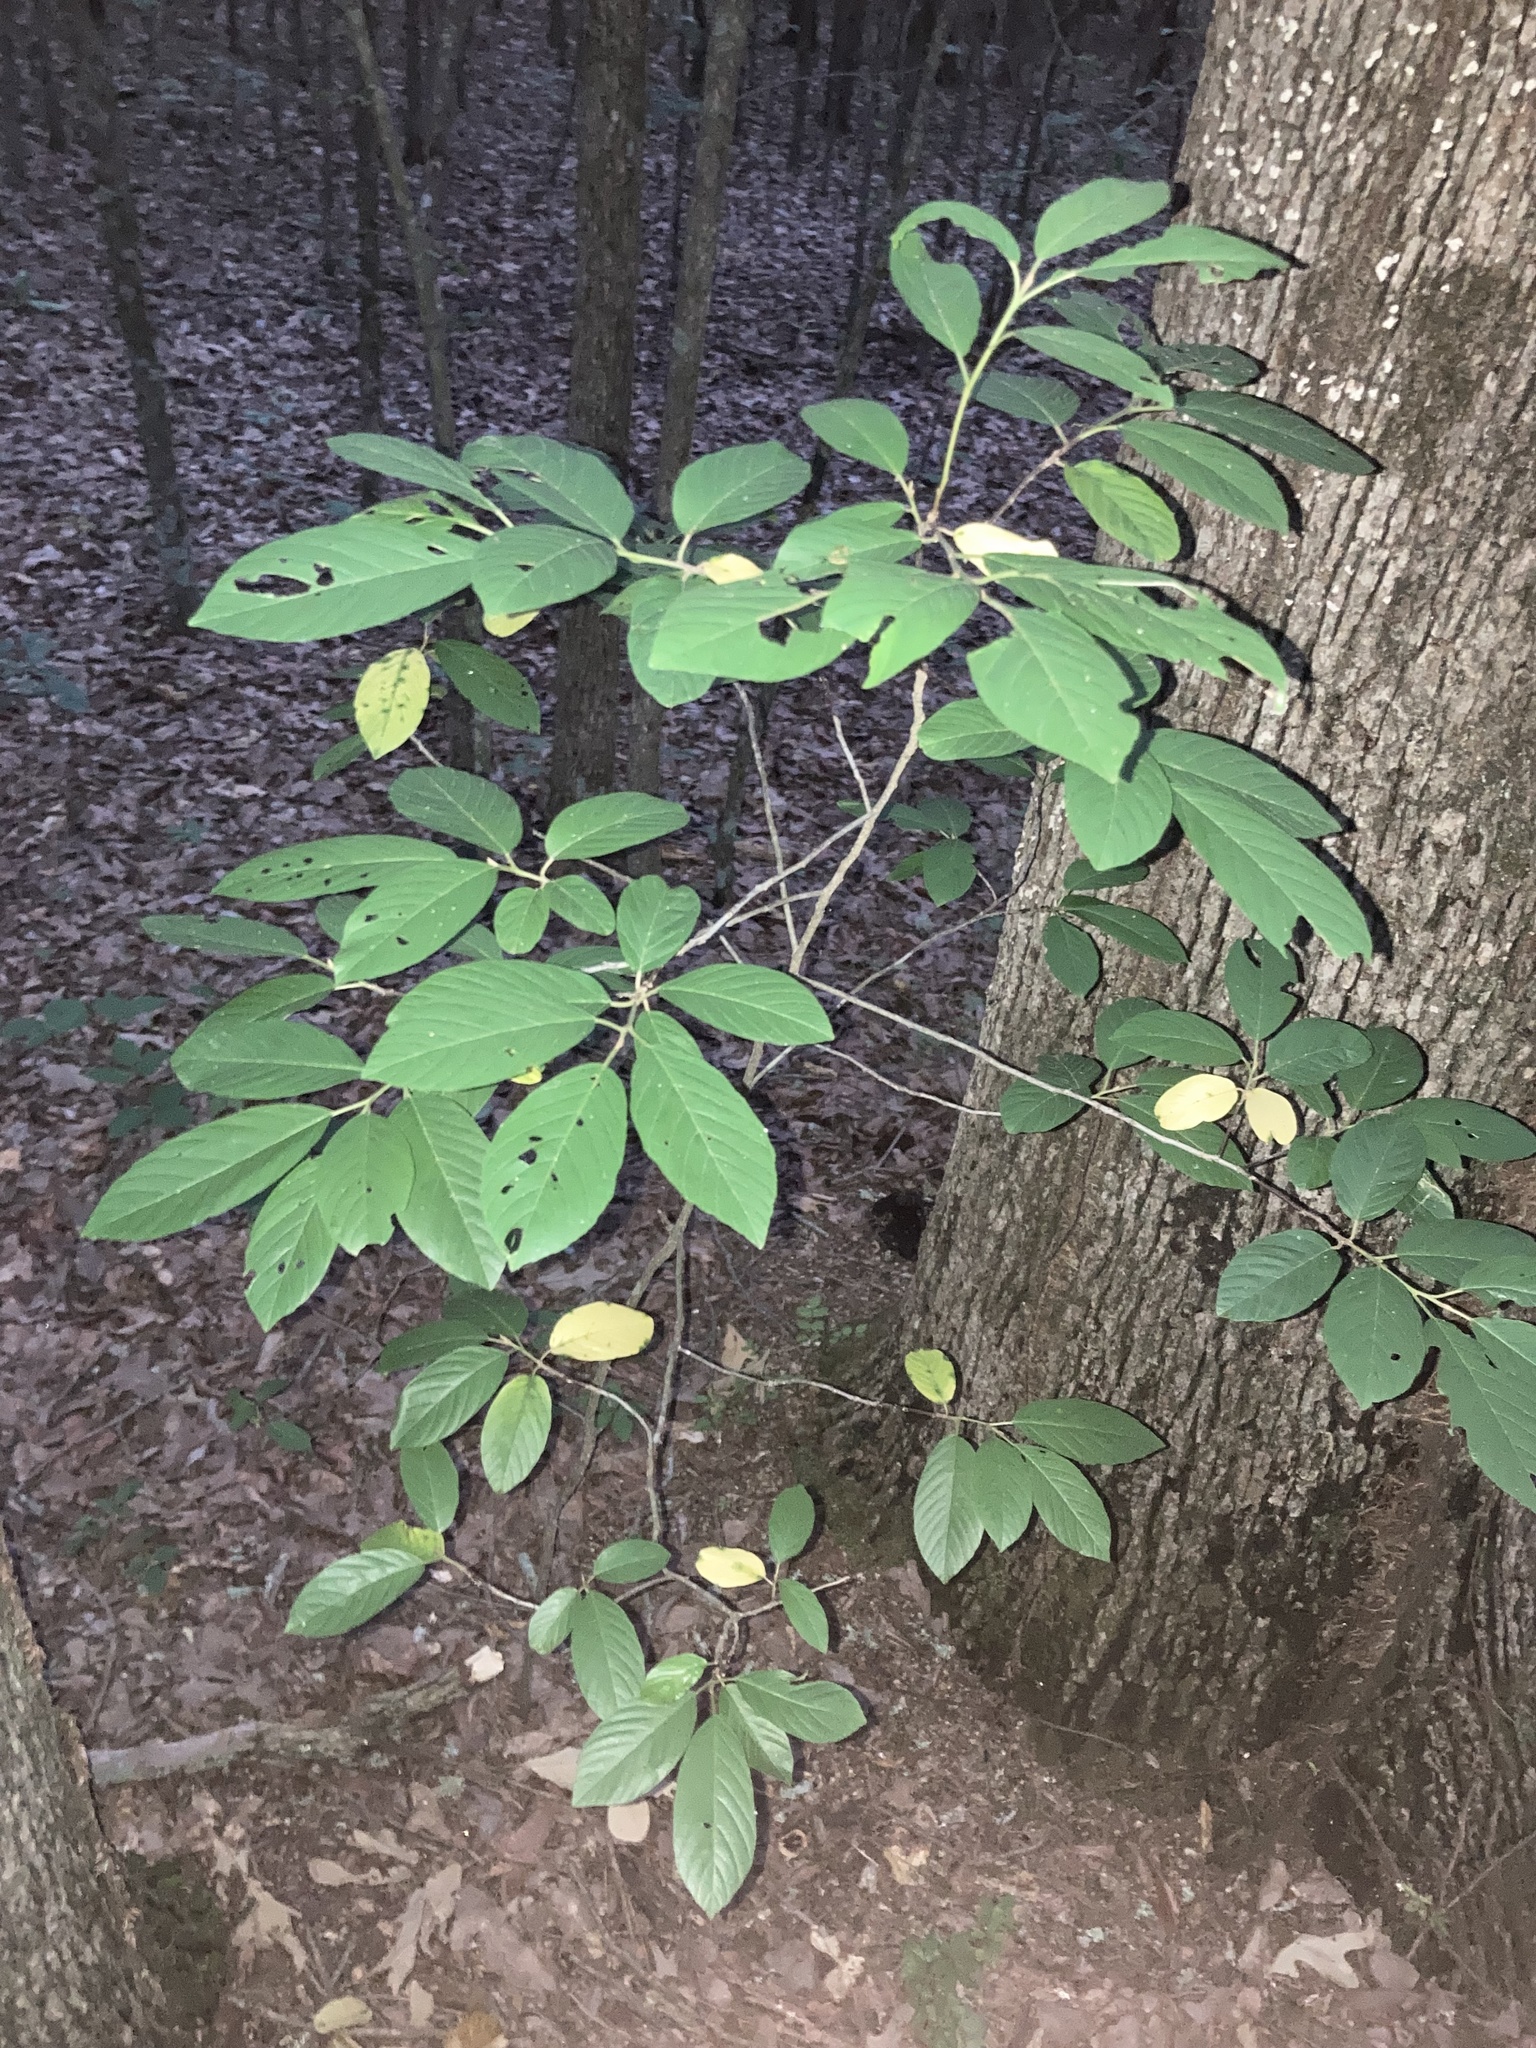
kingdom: Plantae
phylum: Tracheophyta
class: Magnoliopsida
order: Rosales
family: Rhamnaceae
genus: Frangula
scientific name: Frangula caroliniana
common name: Carolina buckthorn
